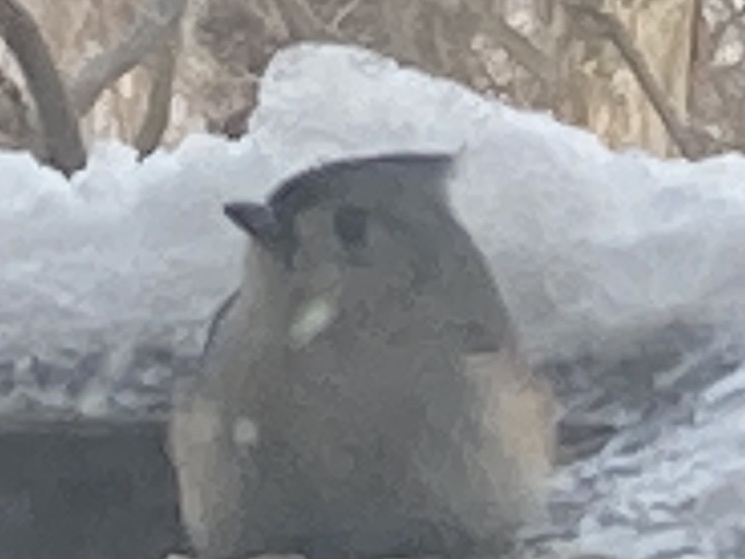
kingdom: Animalia
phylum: Chordata
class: Aves
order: Passeriformes
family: Paridae
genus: Baeolophus
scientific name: Baeolophus bicolor
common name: Tufted titmouse
